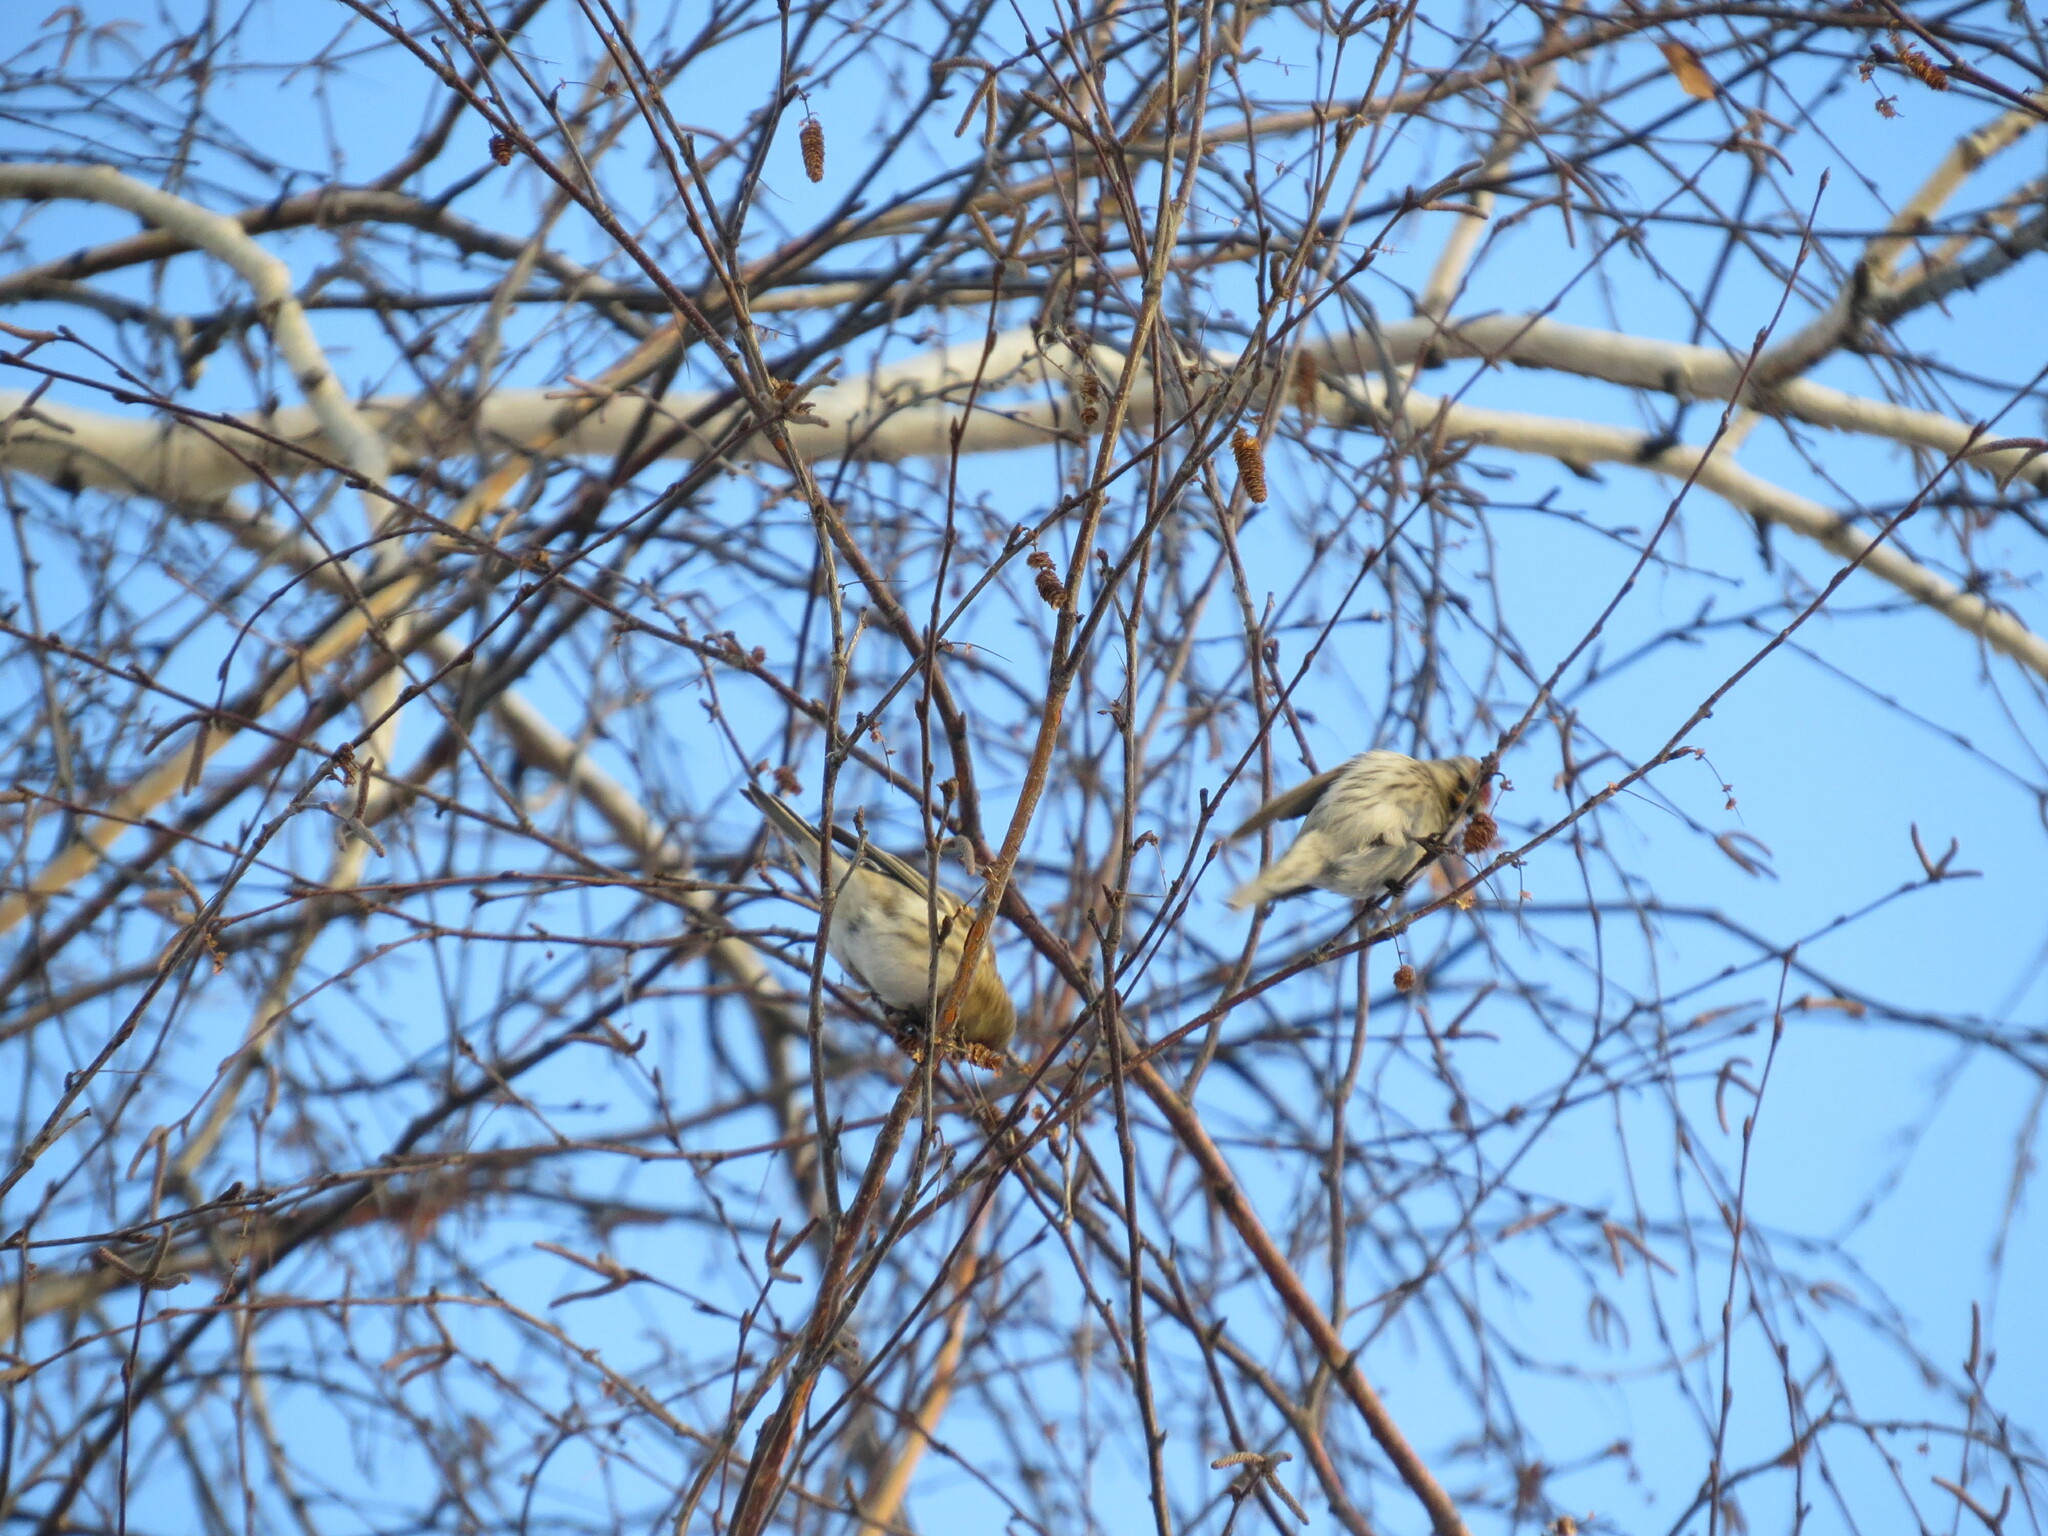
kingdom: Animalia
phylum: Chordata
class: Aves
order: Passeriformes
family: Fringillidae
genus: Acanthis
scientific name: Acanthis hornemanni
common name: Arctic redpoll
